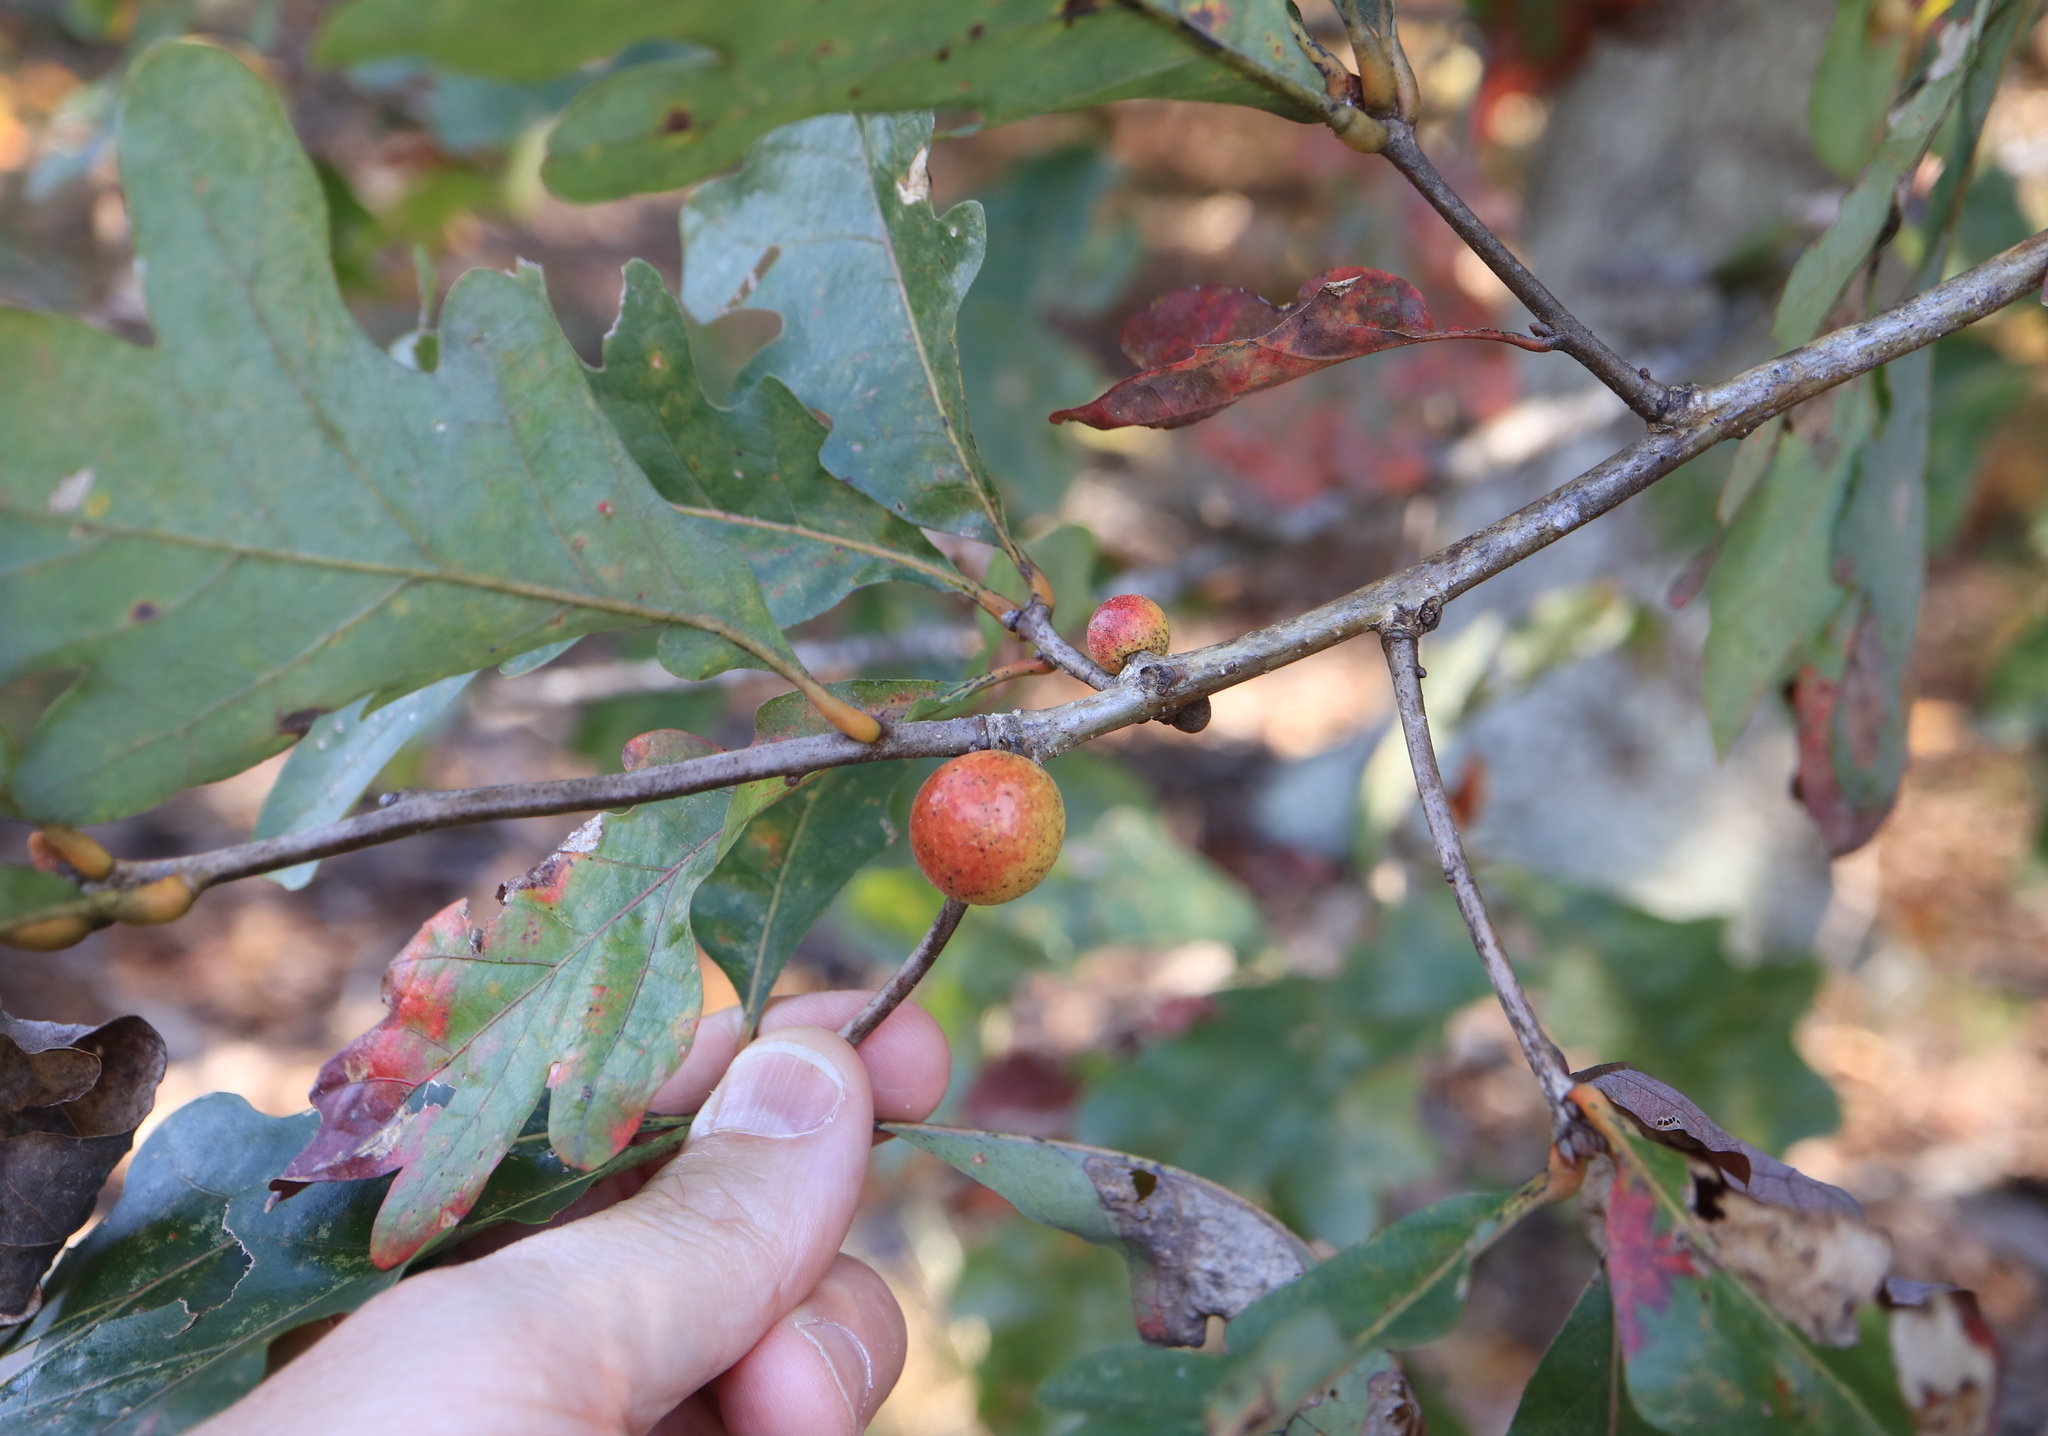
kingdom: Animalia
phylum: Arthropoda
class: Insecta
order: Hymenoptera
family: Cynipidae
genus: Disholcaspis
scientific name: Disholcaspis quercusglobulus
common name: Round bullet gall wasp
